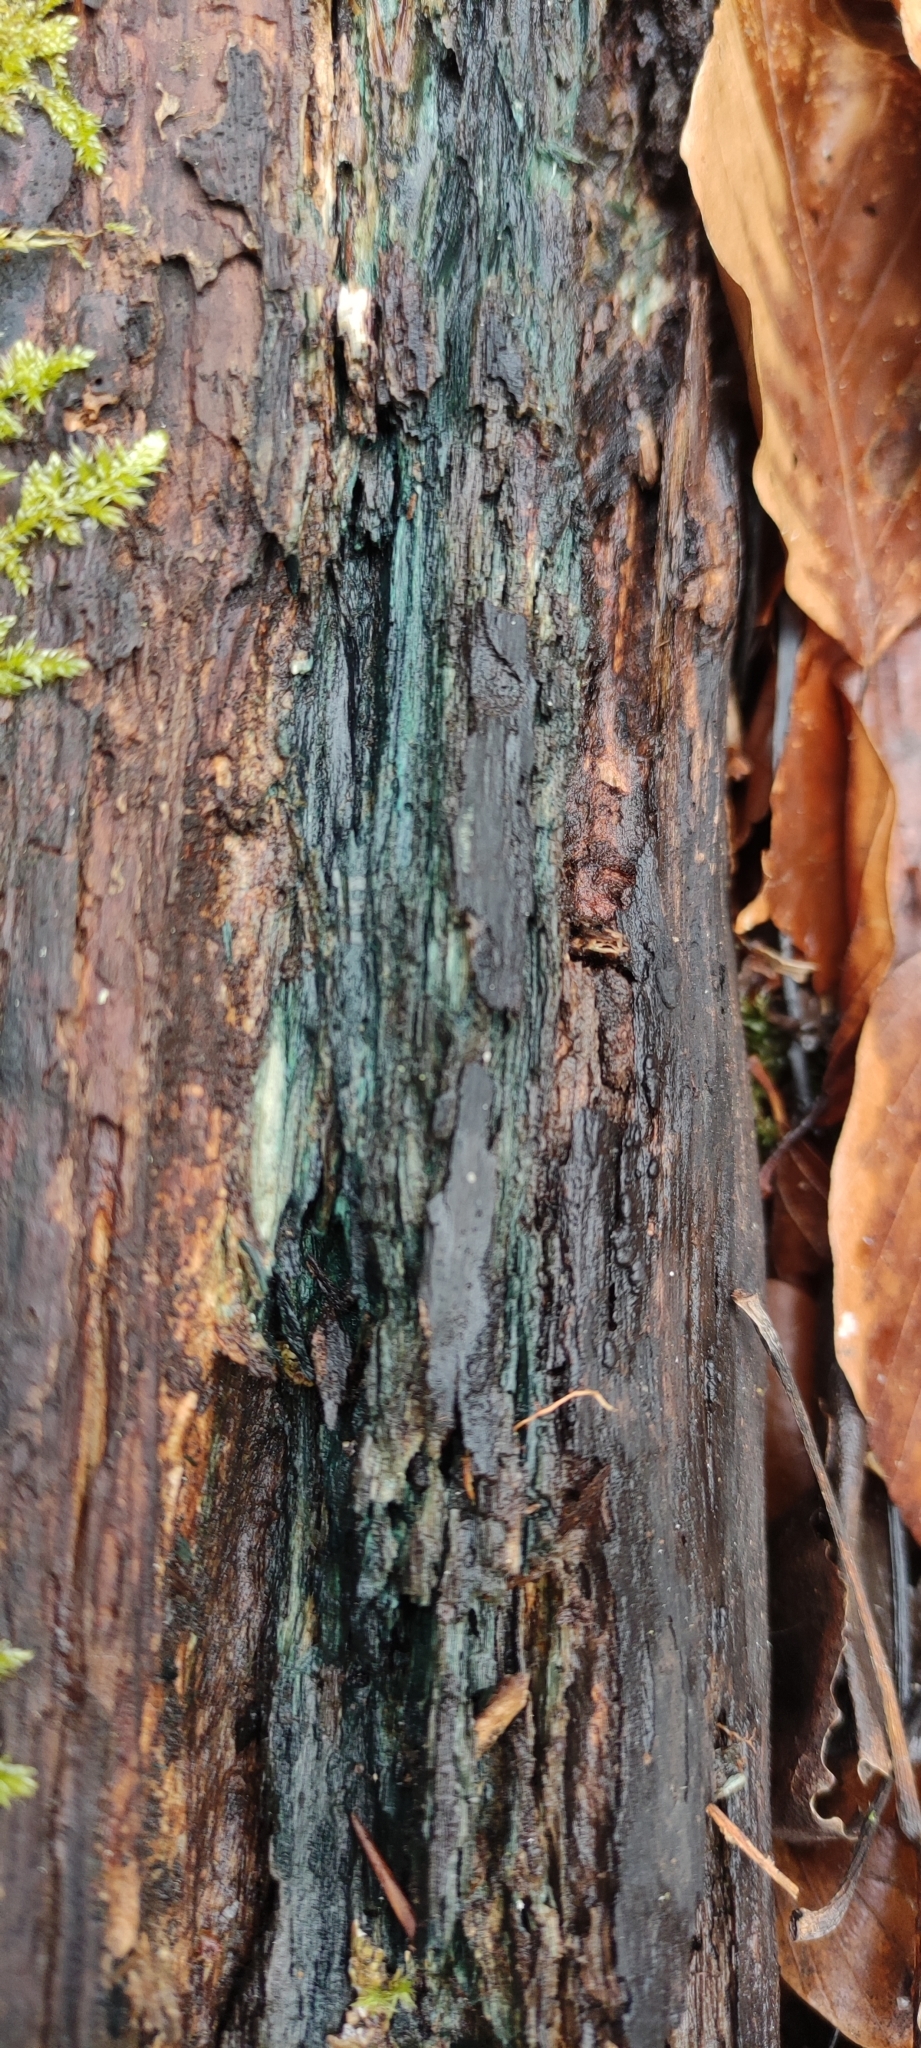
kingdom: Fungi
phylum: Ascomycota
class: Leotiomycetes
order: Helotiales
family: Chlorociboriaceae
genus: Chlorociboria
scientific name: Chlorociboria
